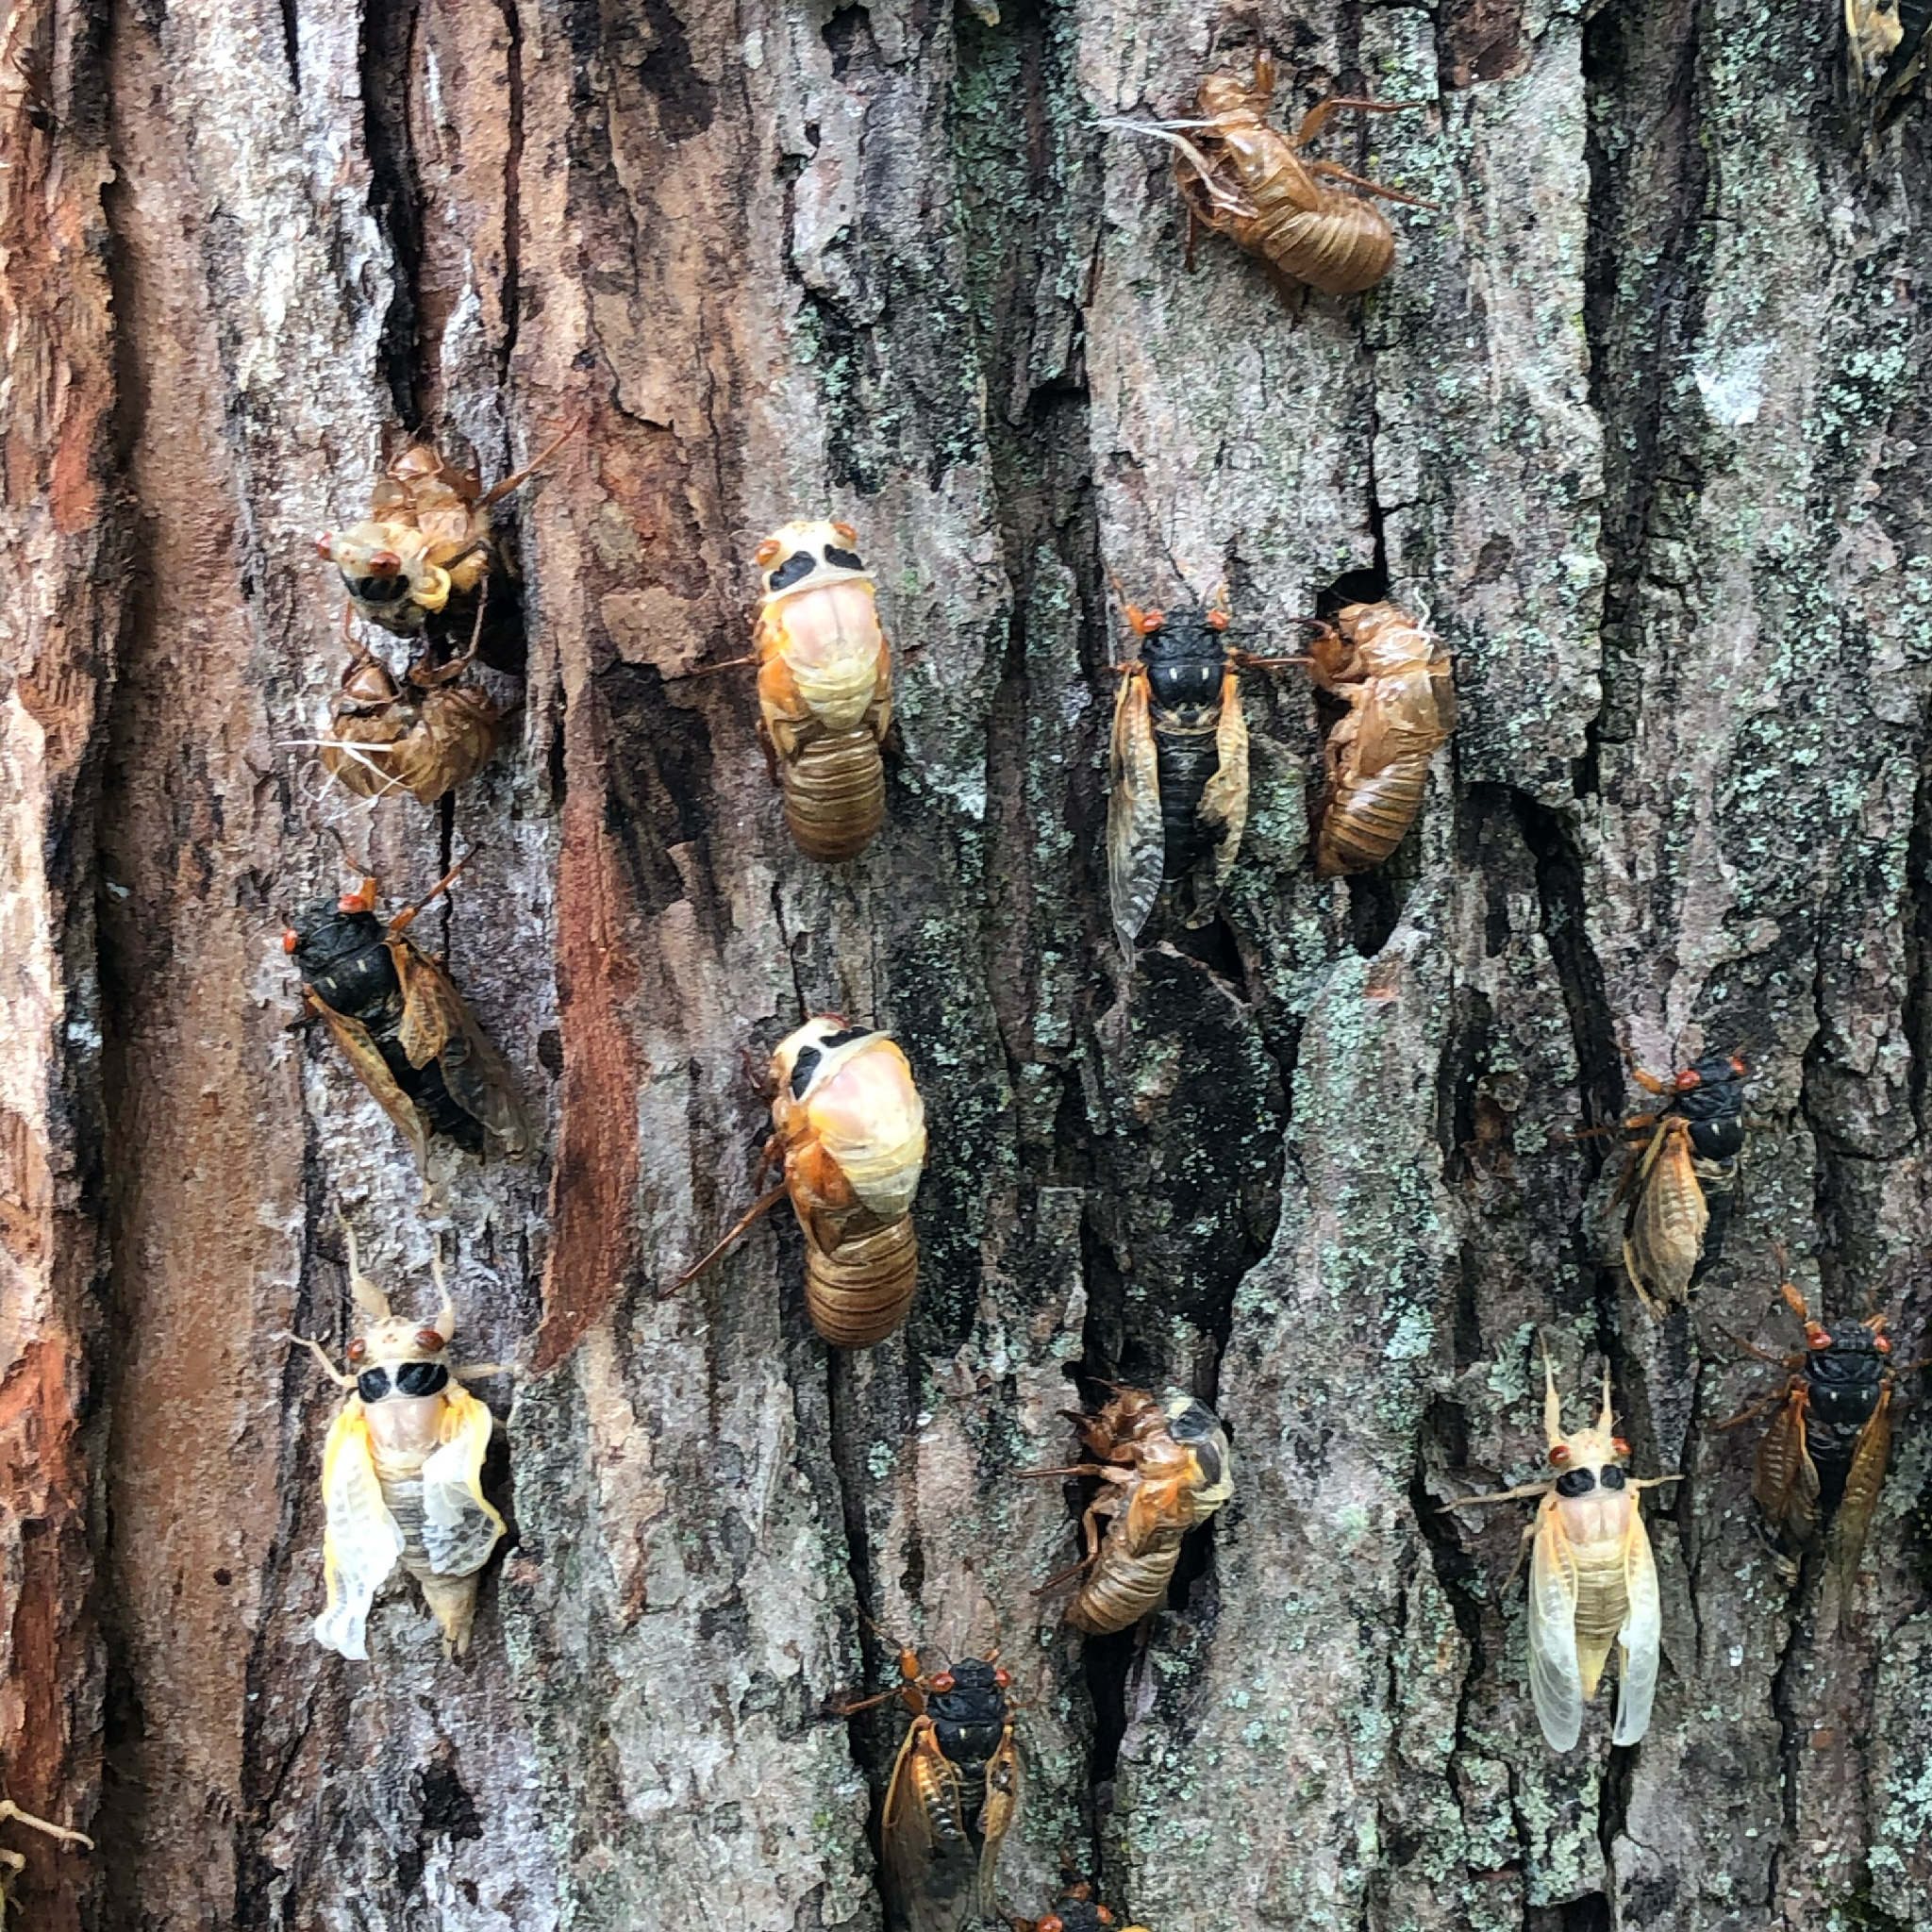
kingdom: Animalia
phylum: Arthropoda
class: Insecta
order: Hemiptera
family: Cicadidae
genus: Magicicada
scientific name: Magicicada
